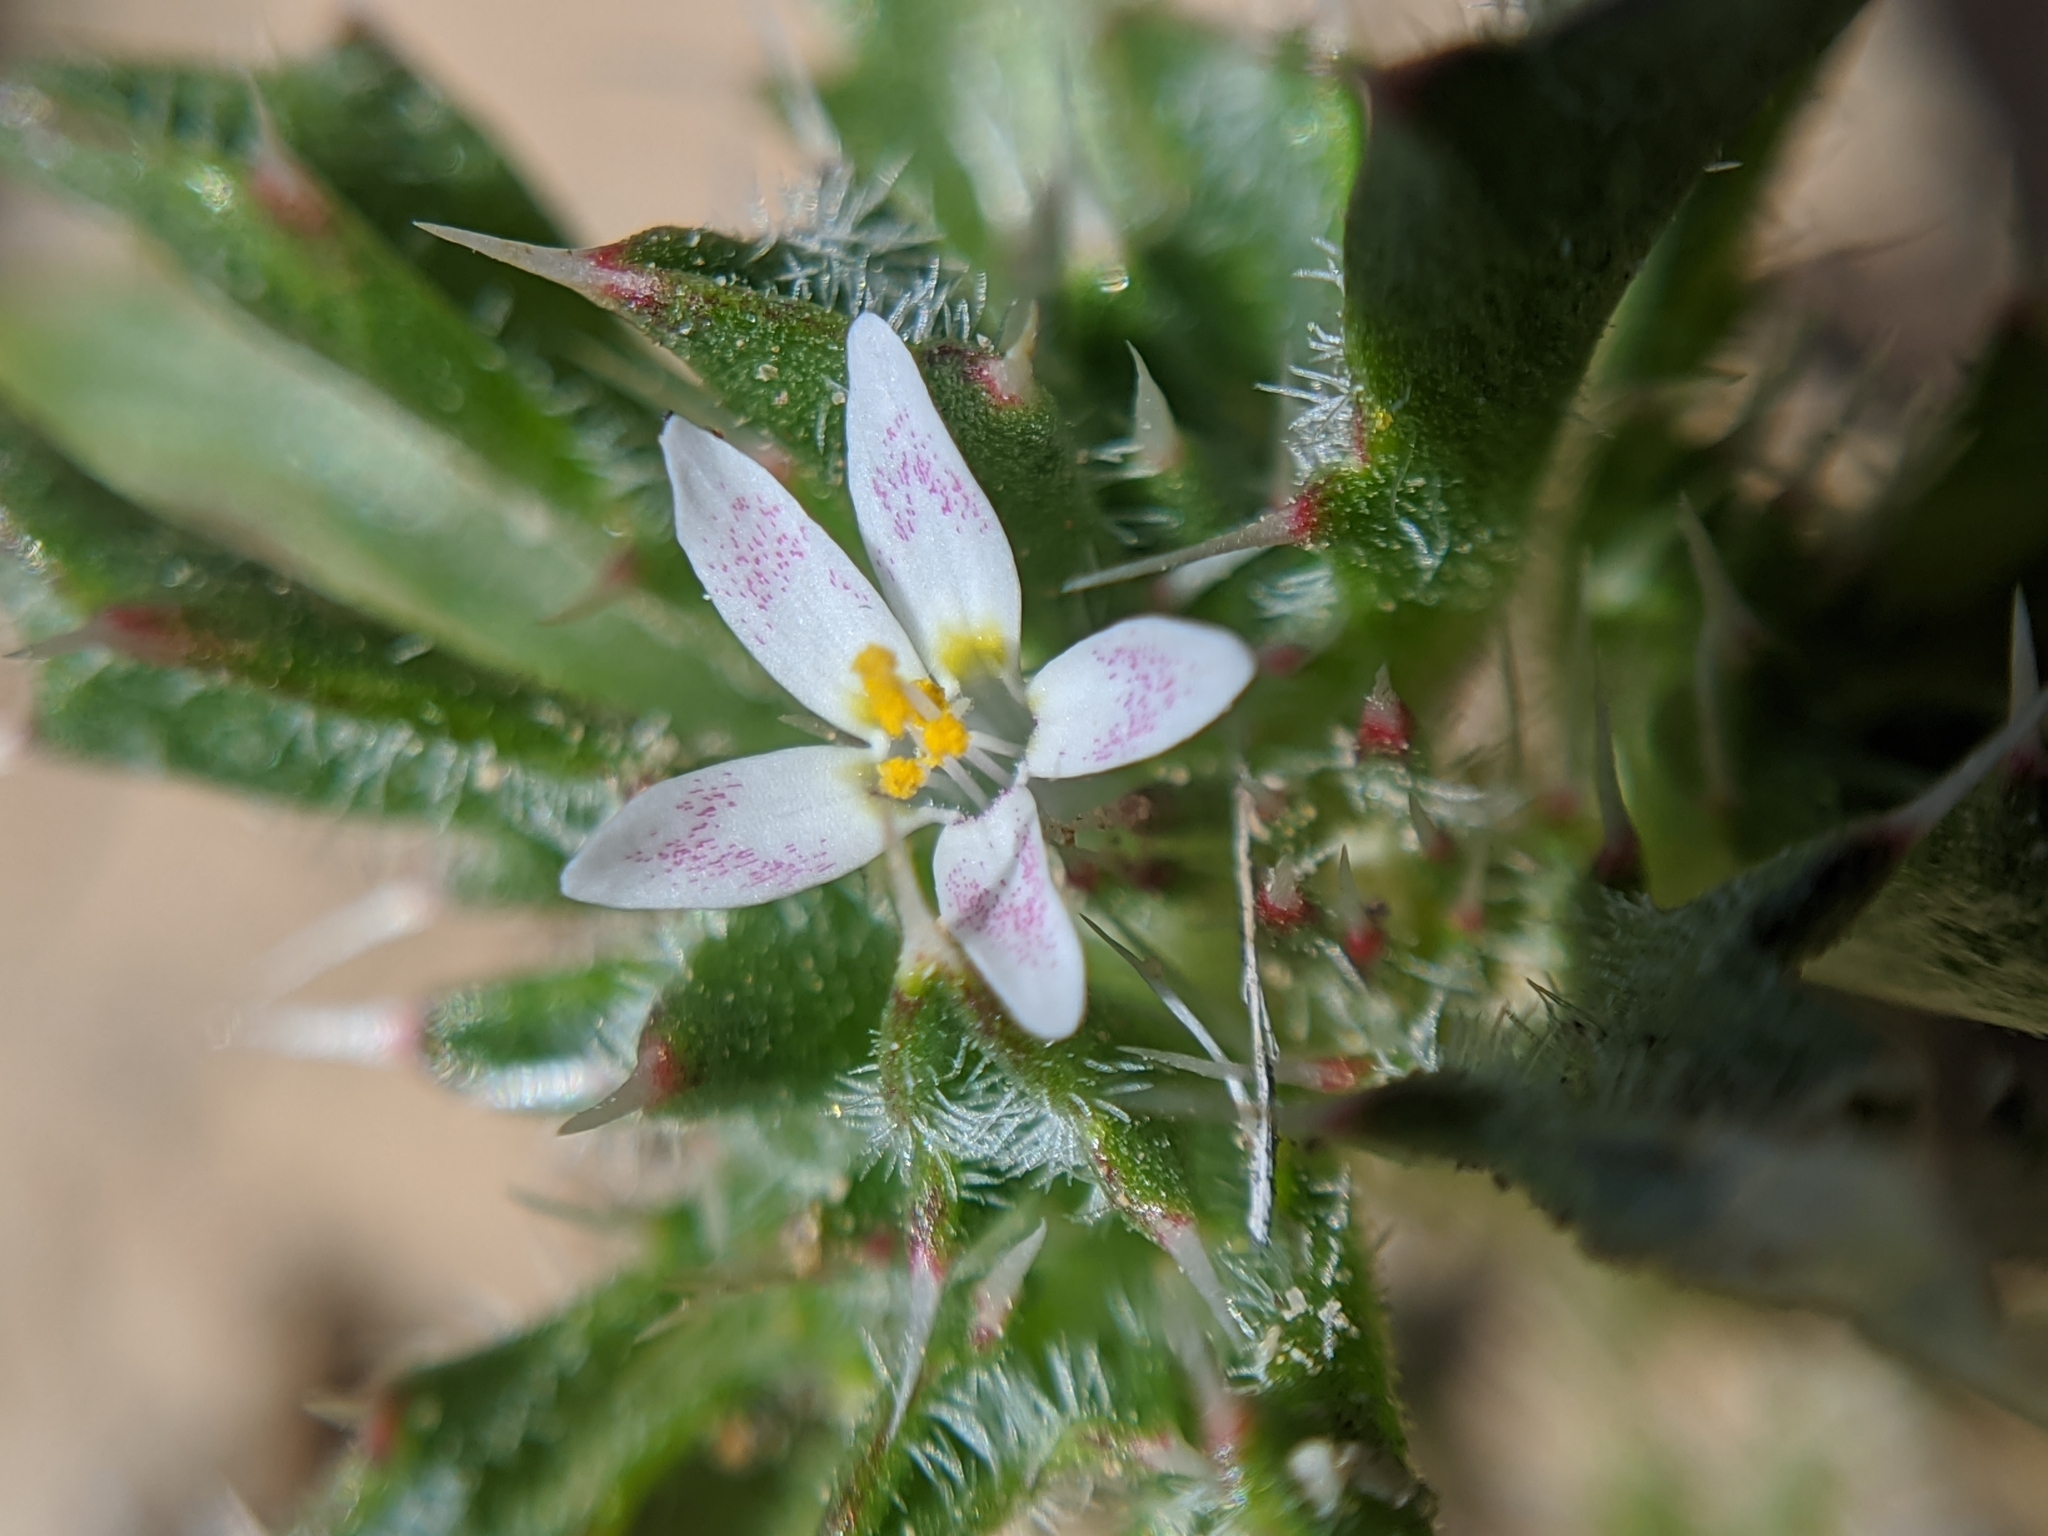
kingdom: Plantae
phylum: Tracheophyta
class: Magnoliopsida
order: Ericales
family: Polemoniaceae
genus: Loeseliastrum
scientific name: Loeseliastrum schottii
